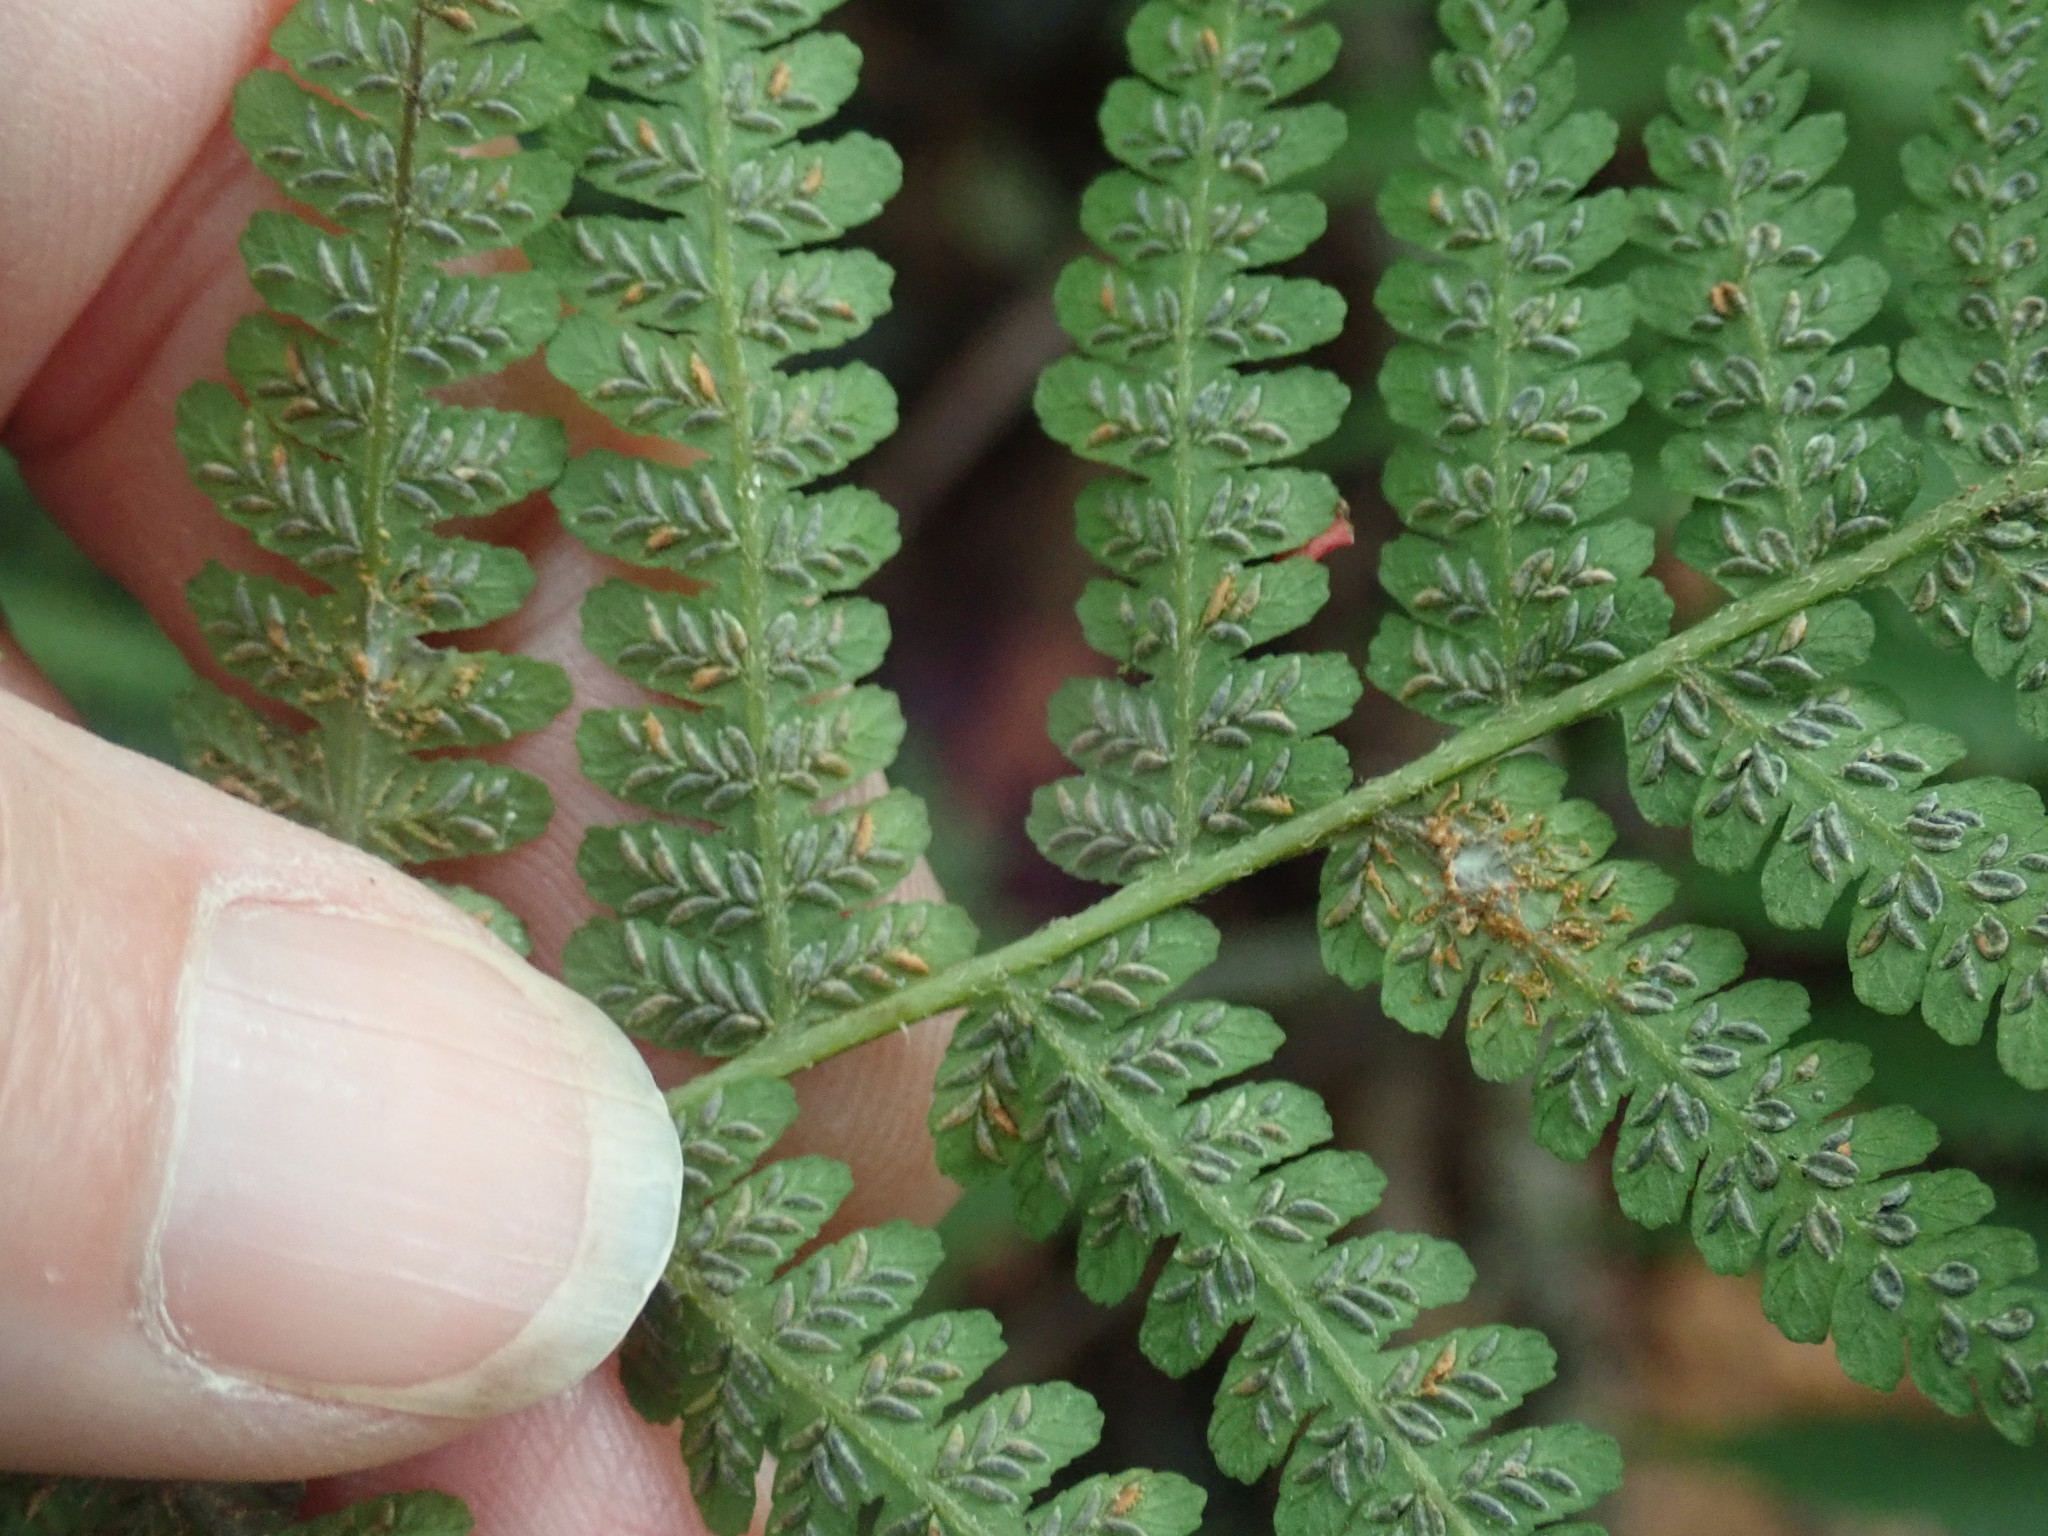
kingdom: Plantae
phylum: Tracheophyta
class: Polypodiopsida
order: Polypodiales
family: Athyriaceae
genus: Deparia
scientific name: Deparia acrostichoides
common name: Silver false spleenwort
